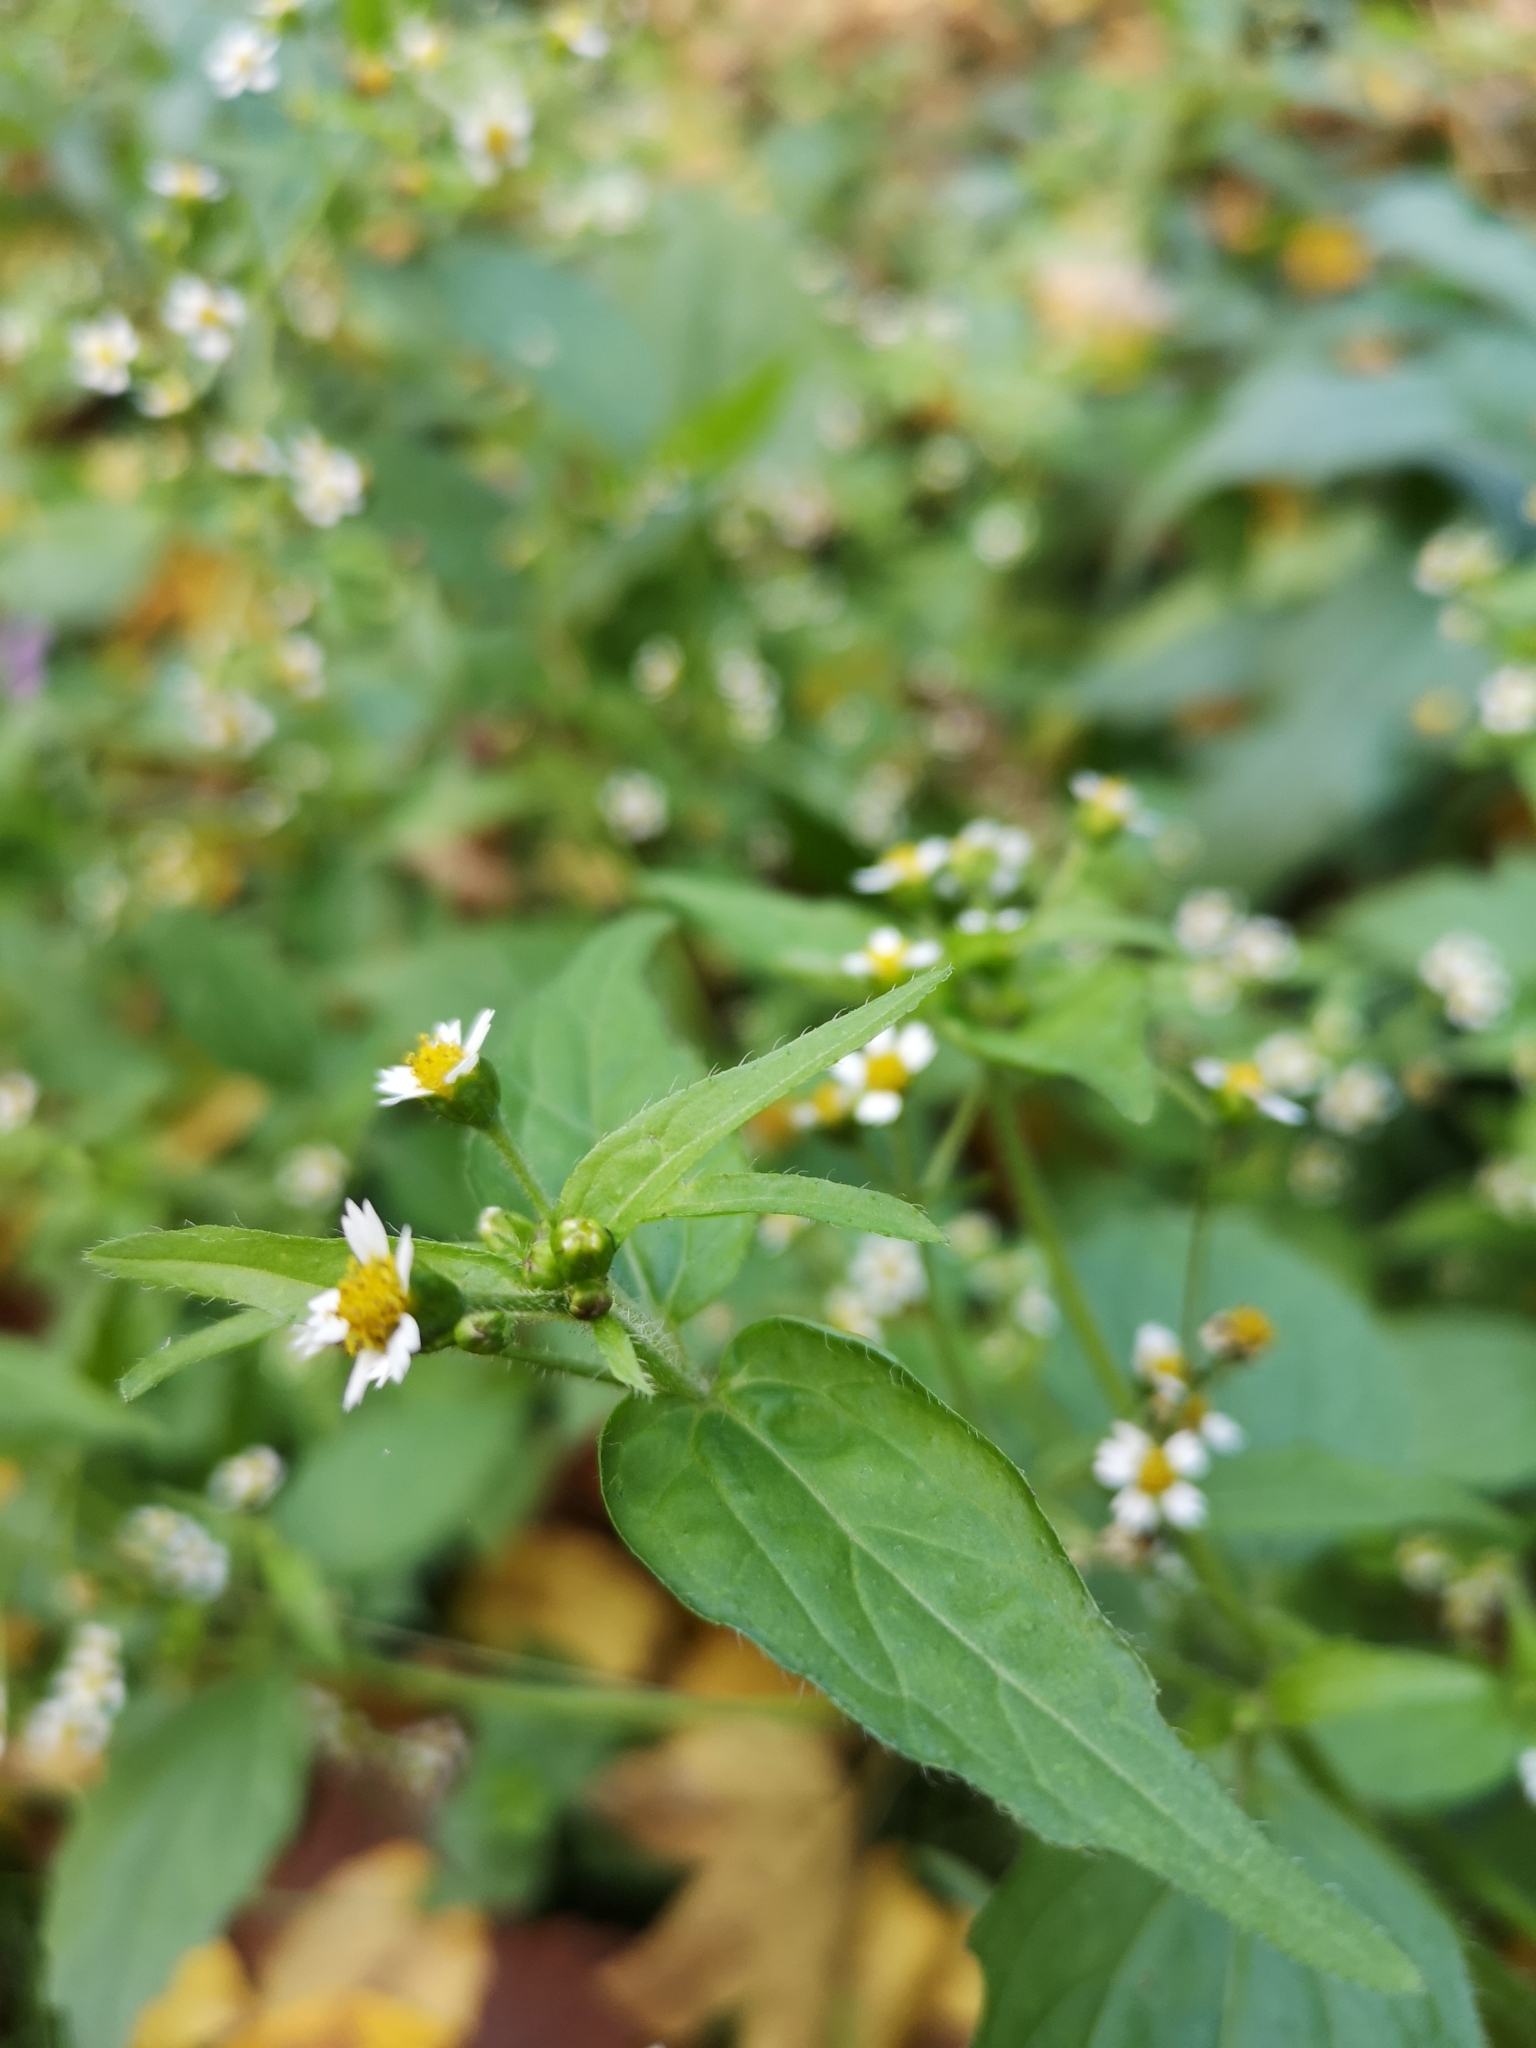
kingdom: Plantae
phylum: Tracheophyta
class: Magnoliopsida
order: Asterales
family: Asteraceae
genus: Galinsoga
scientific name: Galinsoga quadriradiata
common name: Shaggy soldier
